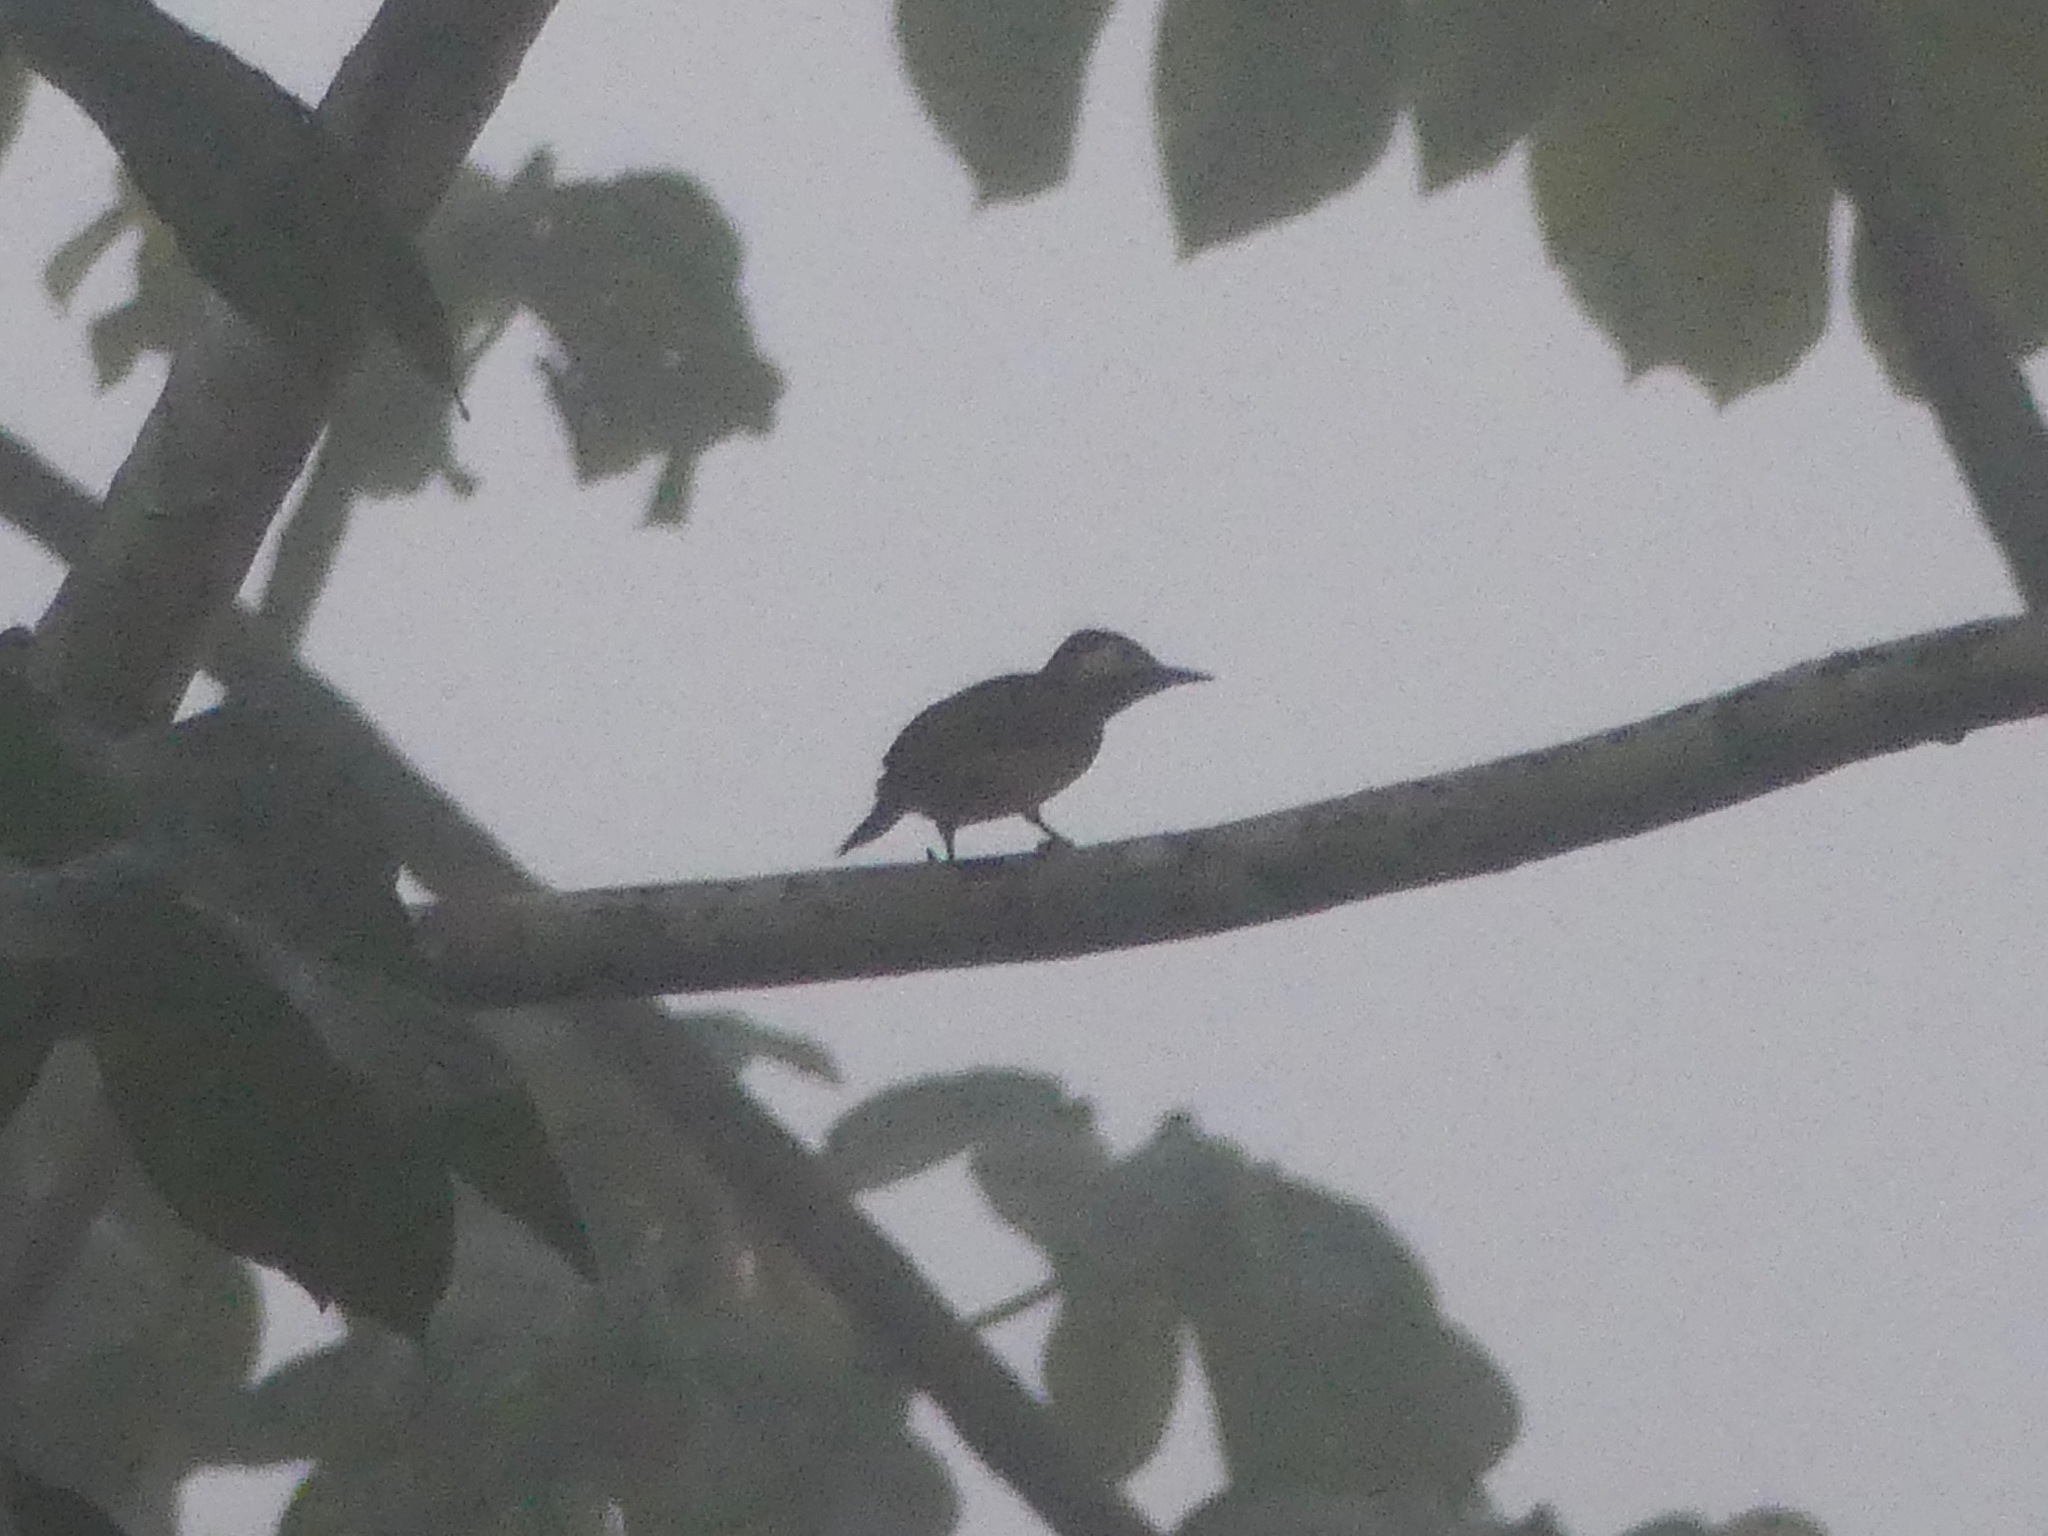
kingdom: Animalia
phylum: Chordata
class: Aves
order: Piciformes
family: Picidae
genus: Colaptes
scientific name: Colaptes punctigula
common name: Spot-breasted woodpecker
